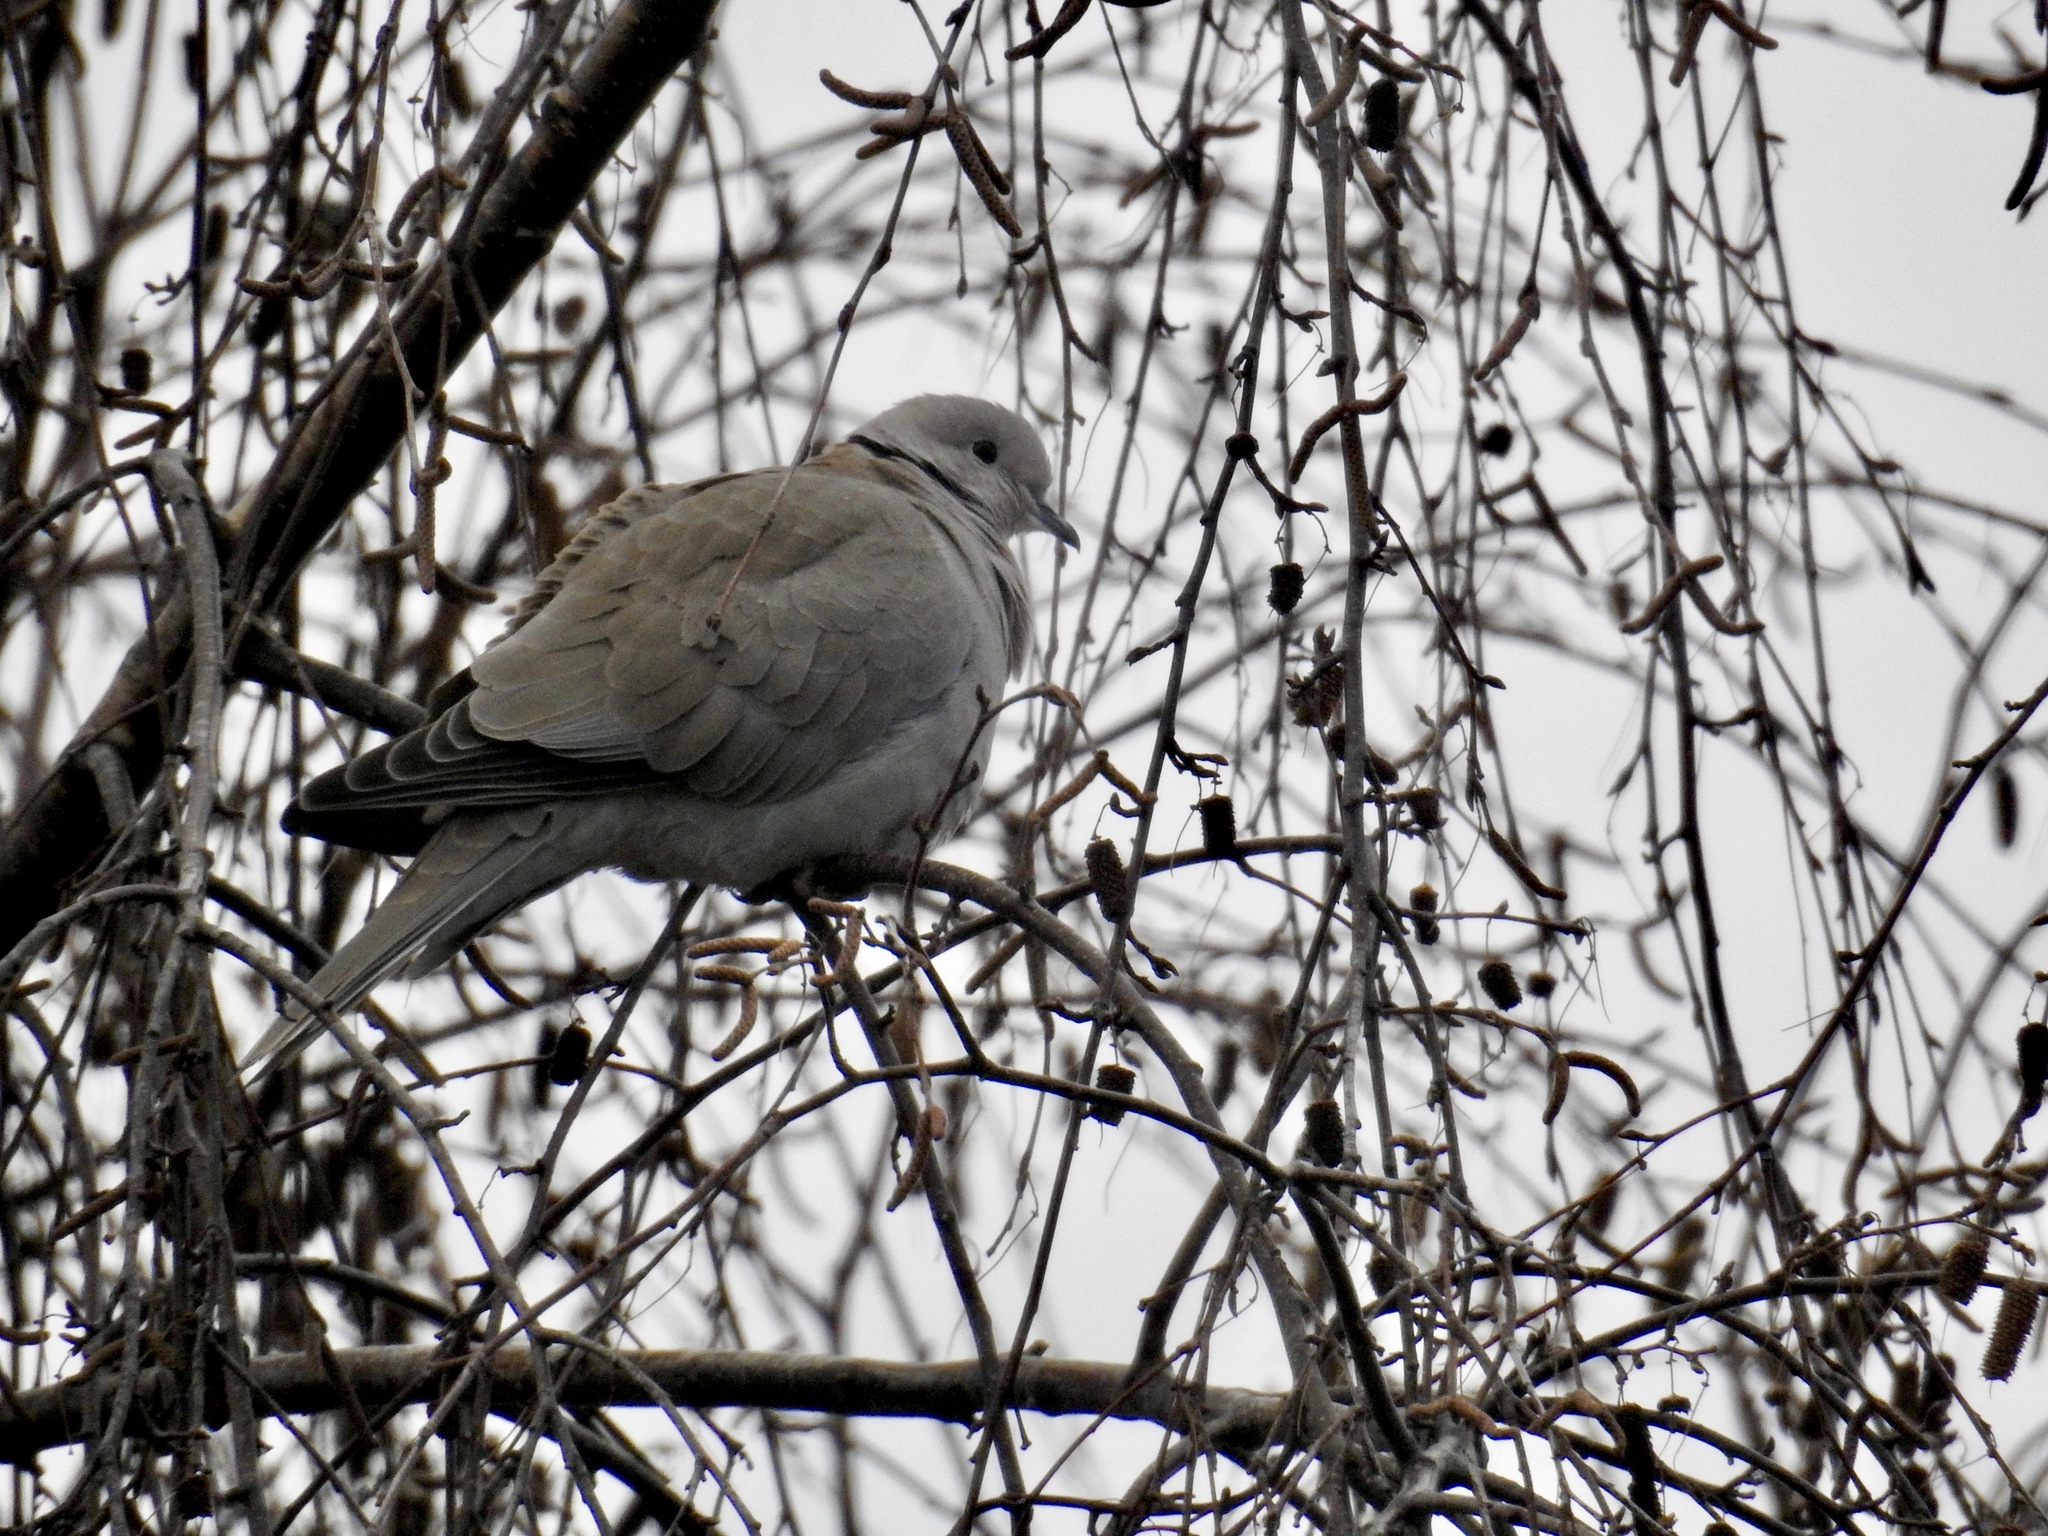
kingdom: Animalia
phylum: Chordata
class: Aves
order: Columbiformes
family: Columbidae
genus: Streptopelia
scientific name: Streptopelia decaocto
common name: Eurasian collared dove
